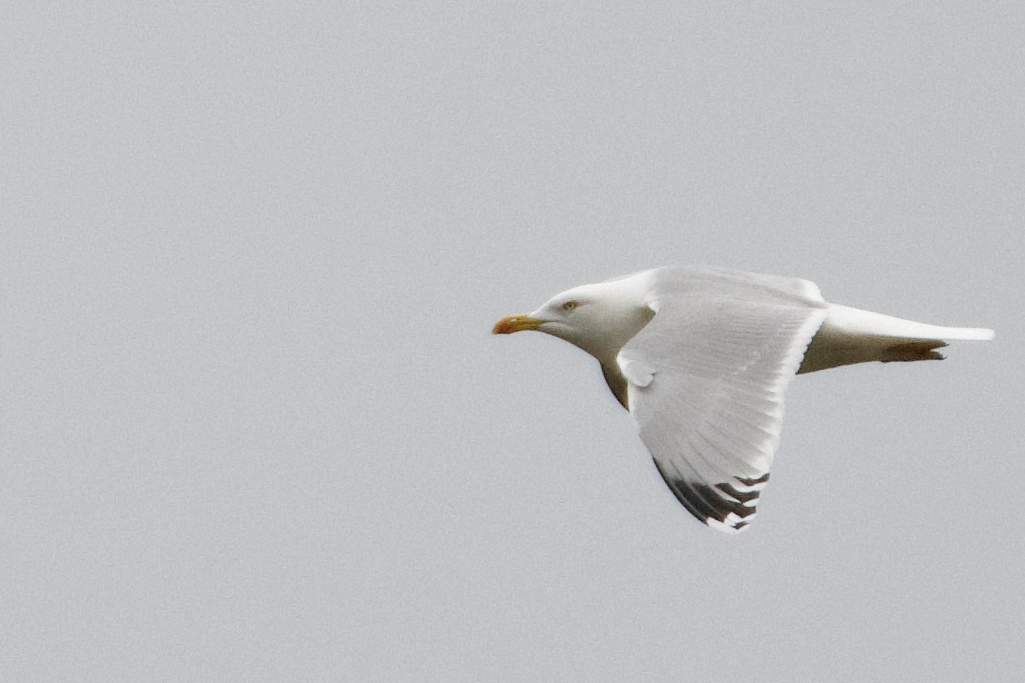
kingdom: Animalia
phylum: Chordata
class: Aves
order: Charadriiformes
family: Laridae
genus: Larus
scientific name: Larus argentatus
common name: Herring gull
